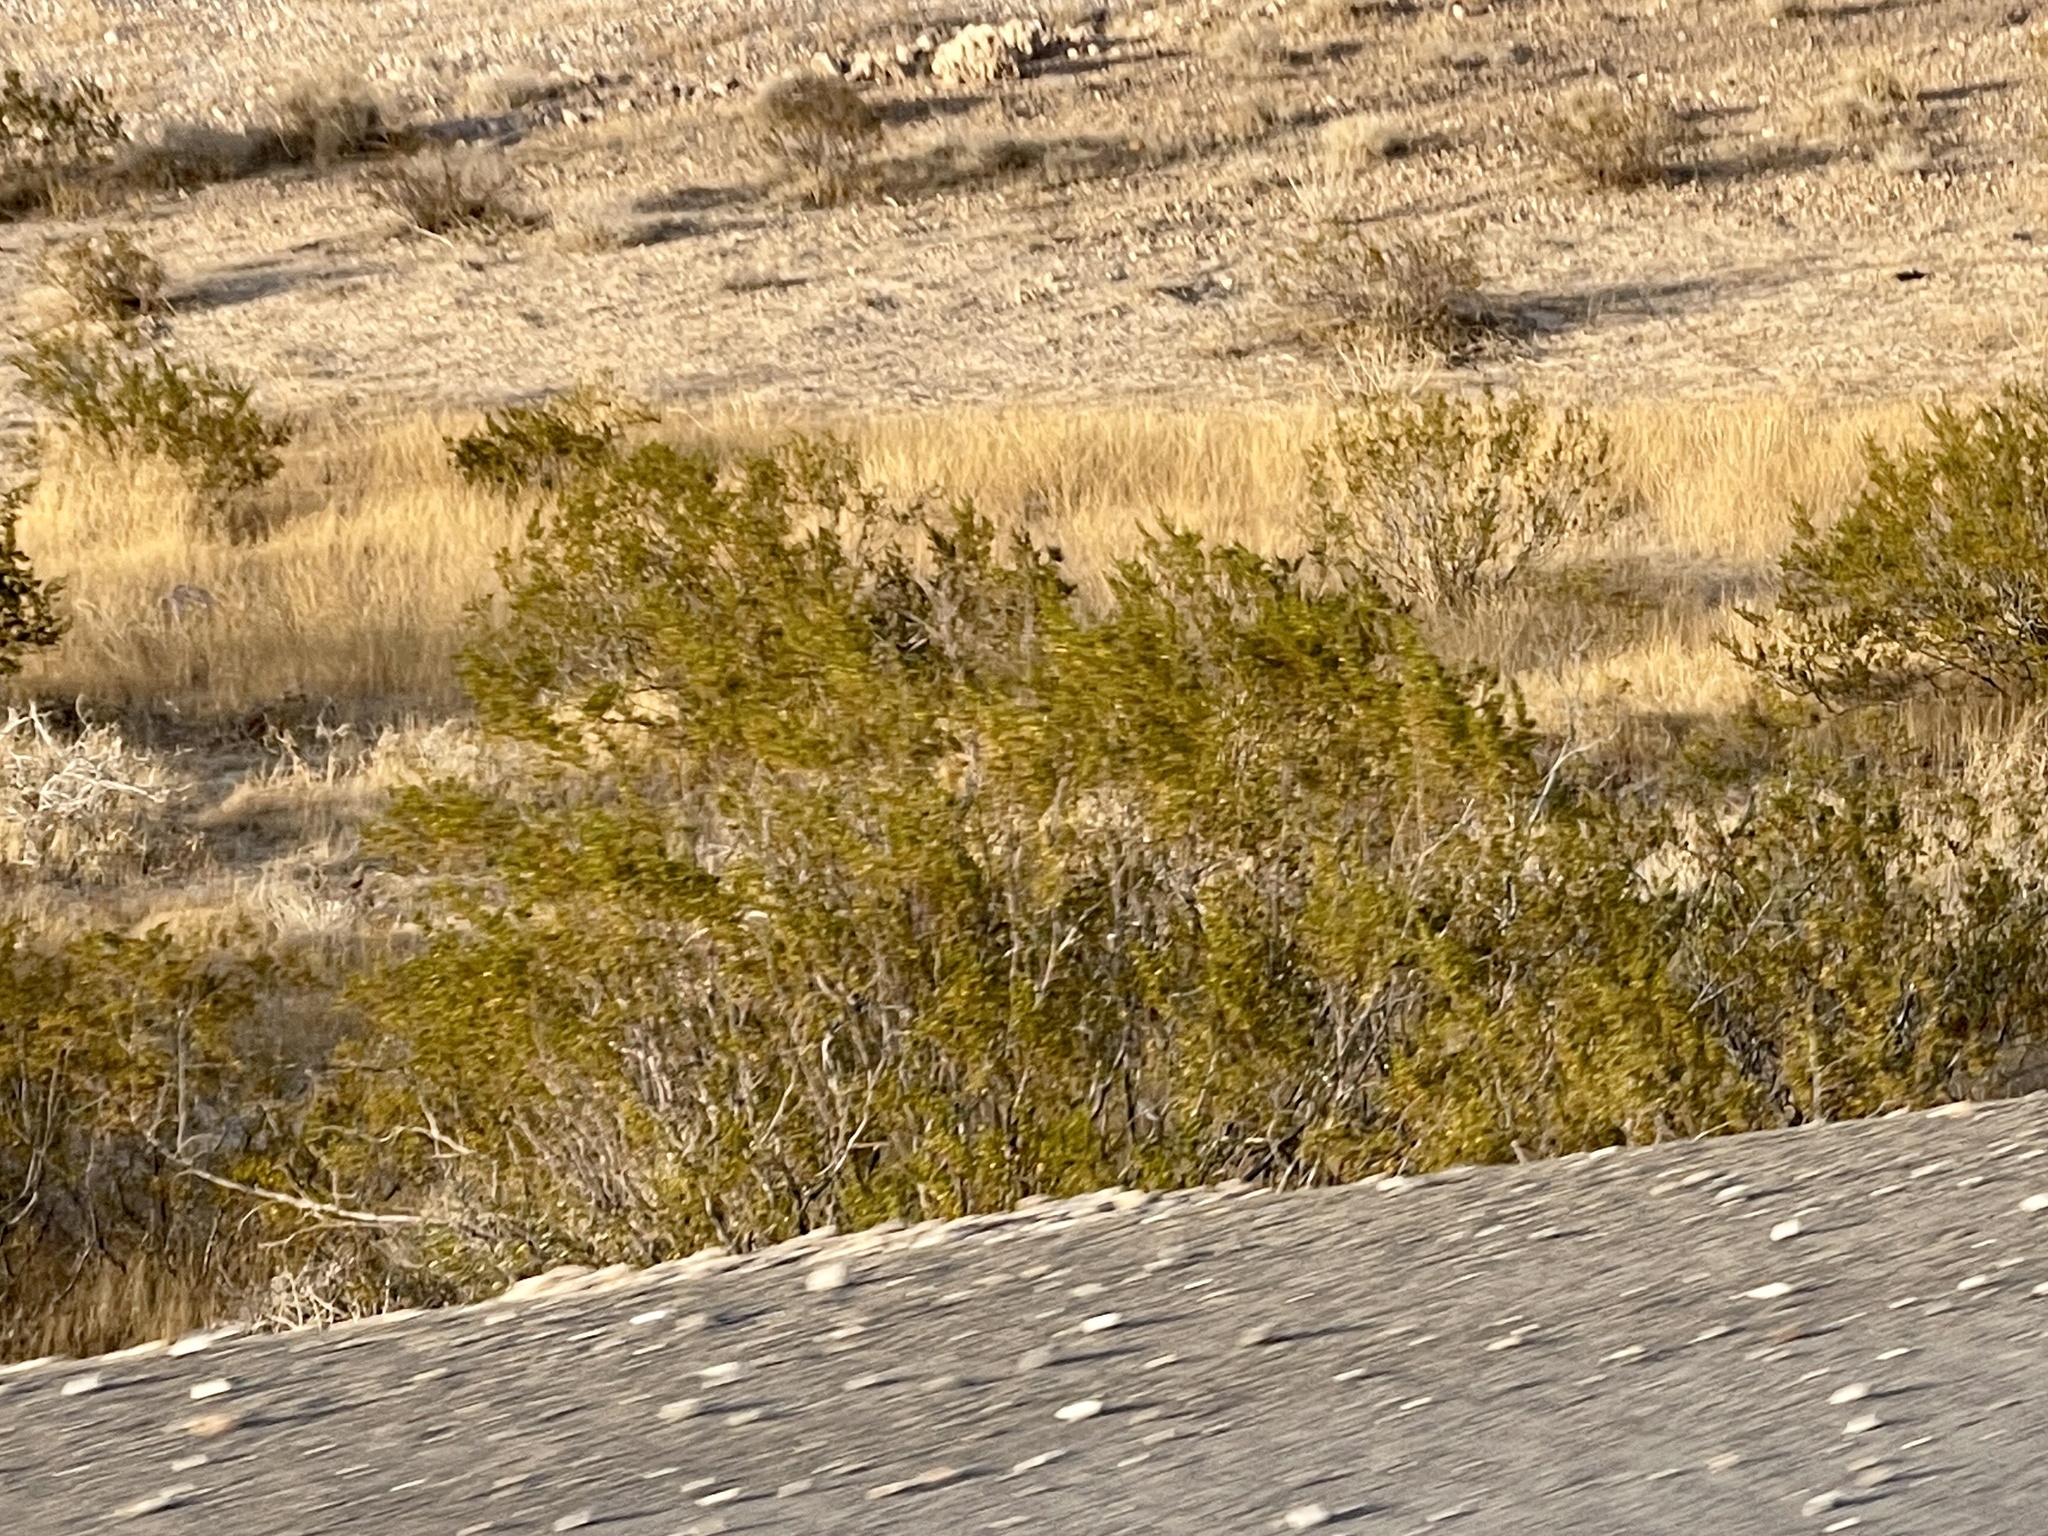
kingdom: Plantae
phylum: Tracheophyta
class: Magnoliopsida
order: Zygophyllales
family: Zygophyllaceae
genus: Larrea
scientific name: Larrea tridentata
